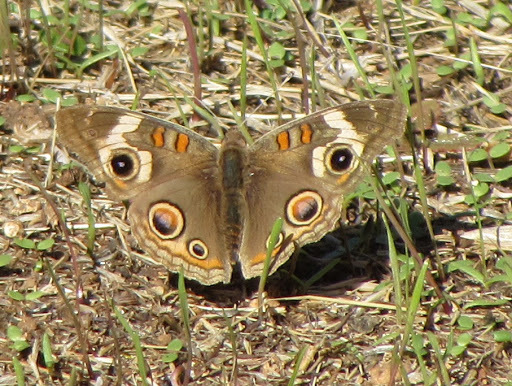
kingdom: Animalia
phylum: Arthropoda
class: Insecta
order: Lepidoptera
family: Nymphalidae
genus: Junonia
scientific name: Junonia grisea
